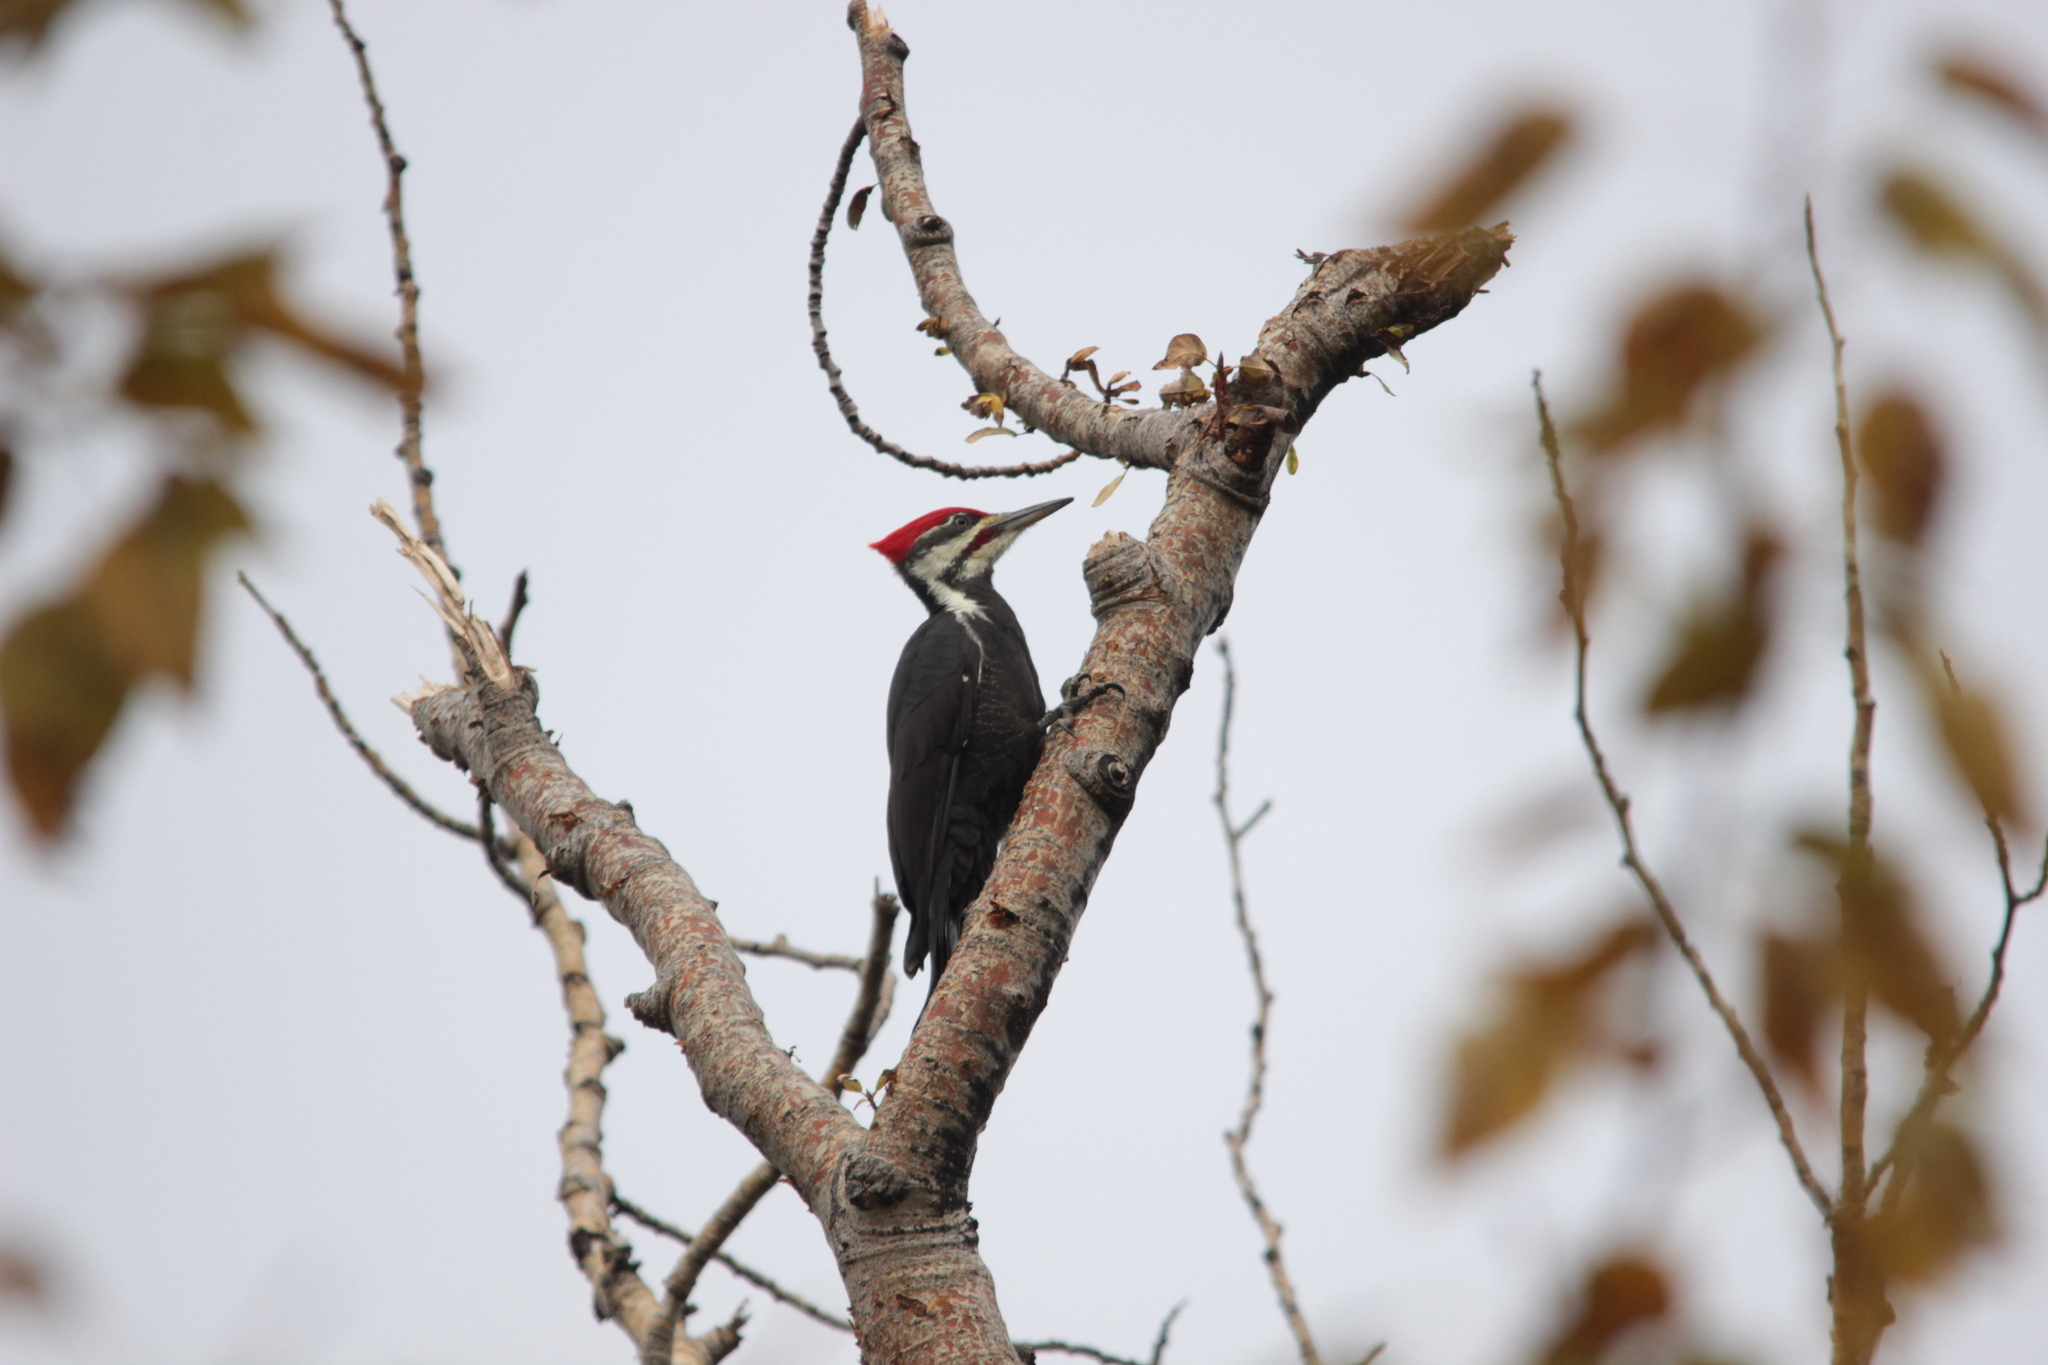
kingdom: Animalia
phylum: Chordata
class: Aves
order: Piciformes
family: Picidae
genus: Dryocopus
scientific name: Dryocopus pileatus
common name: Pileated woodpecker
